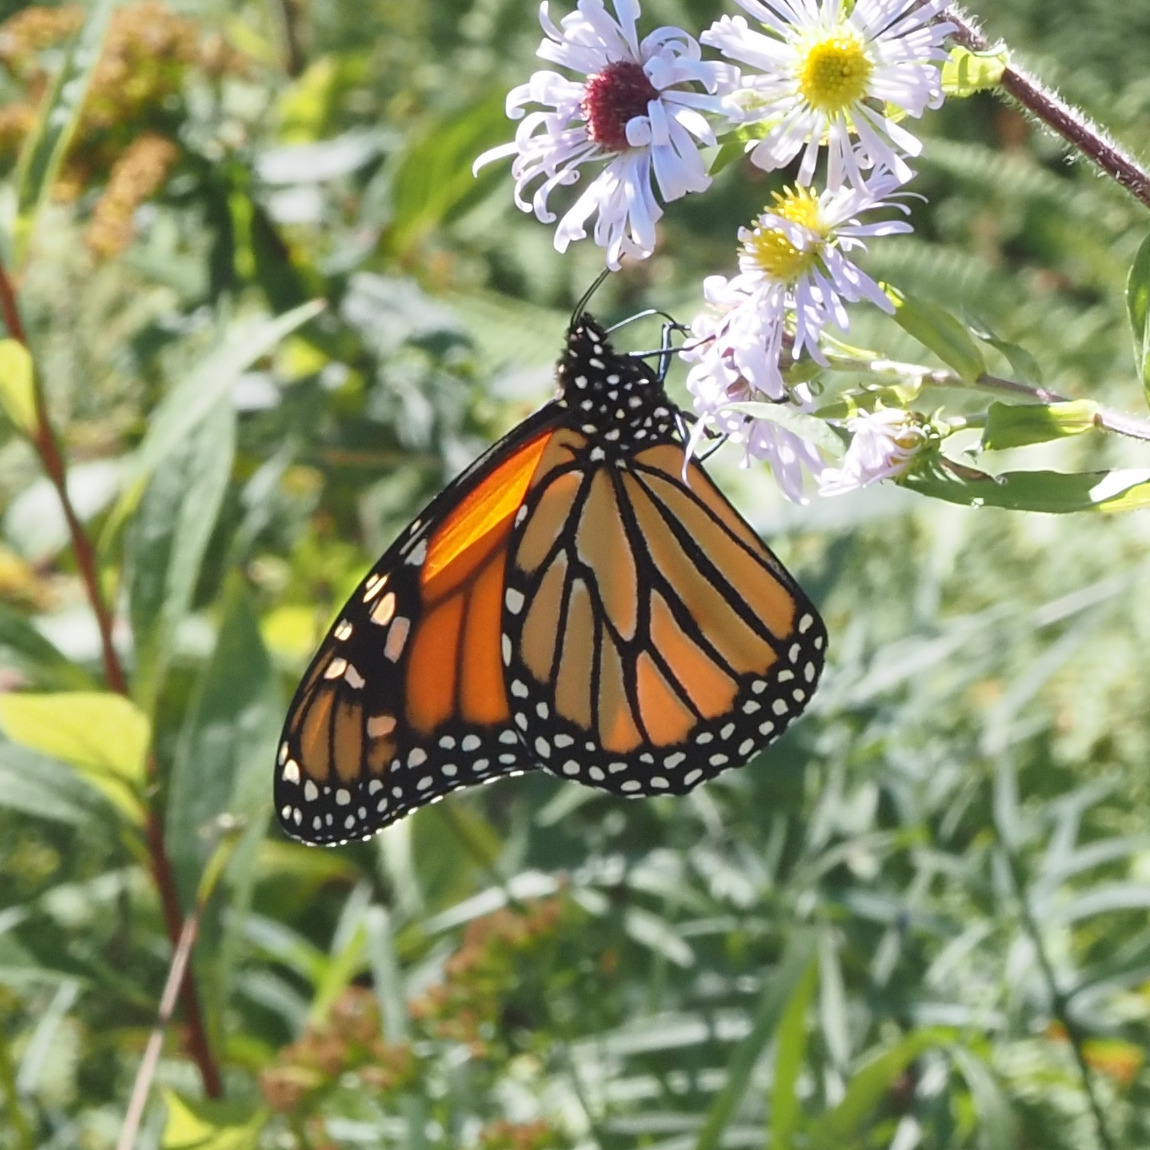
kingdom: Animalia
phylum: Arthropoda
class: Insecta
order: Lepidoptera
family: Nymphalidae
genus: Danaus
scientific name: Danaus plexippus
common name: Monarch
